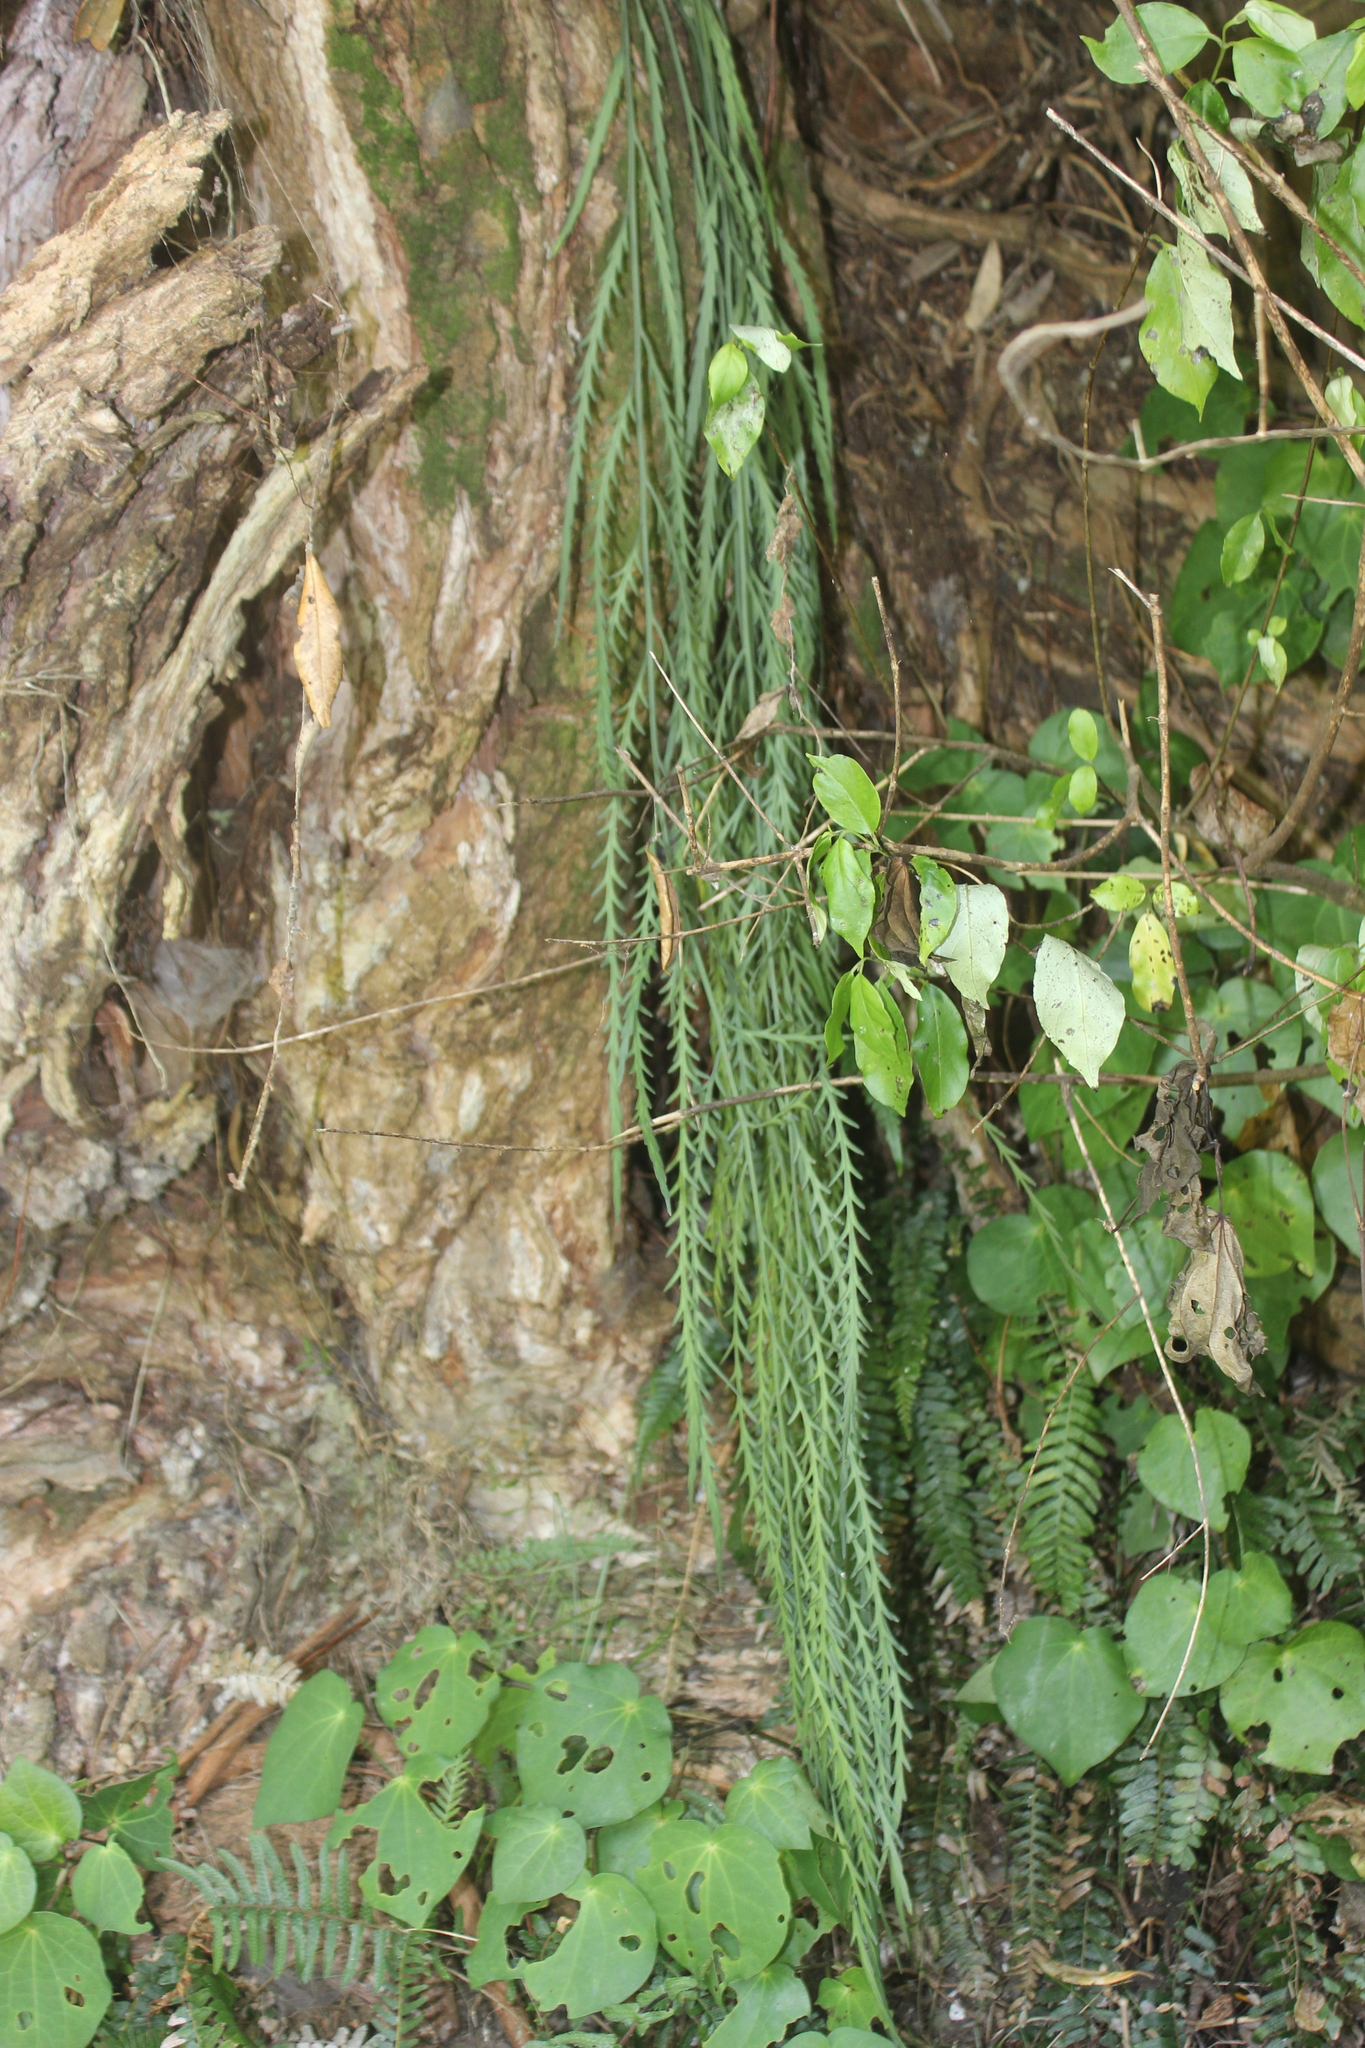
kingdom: Plantae
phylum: Tracheophyta
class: Polypodiopsida
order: Polypodiales
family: Aspleniaceae
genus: Asplenium
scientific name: Asplenium flaccidum
